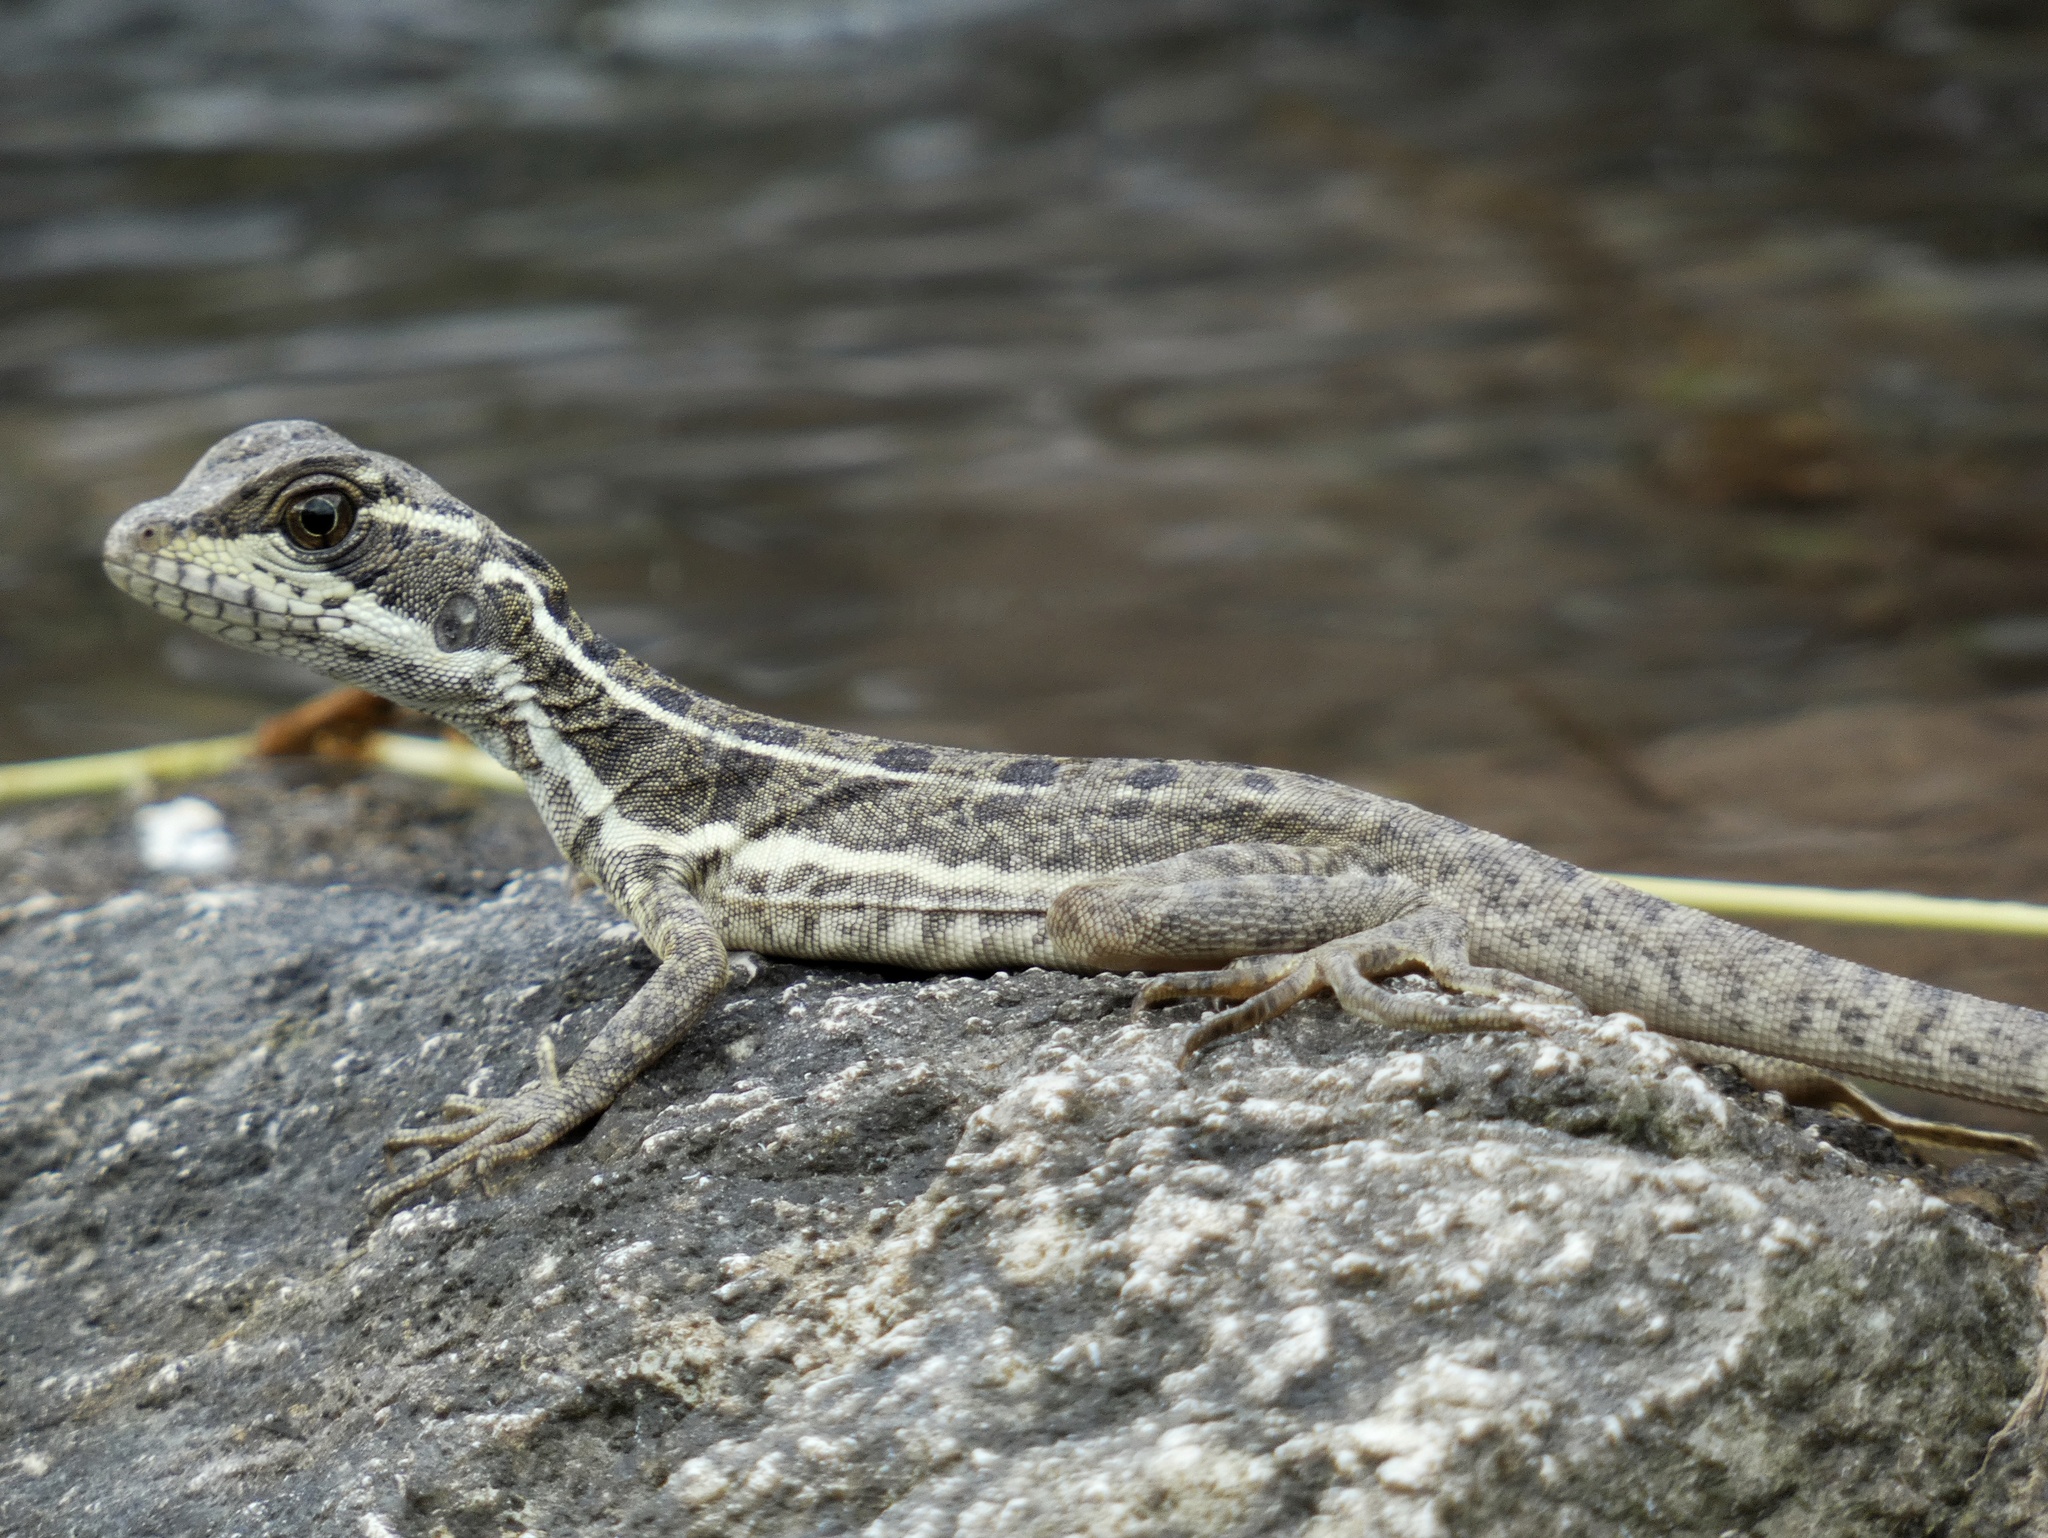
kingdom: Animalia
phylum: Chordata
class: Squamata
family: Corytophanidae
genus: Basiliscus
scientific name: Basiliscus basiliscus
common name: Common basilisk
